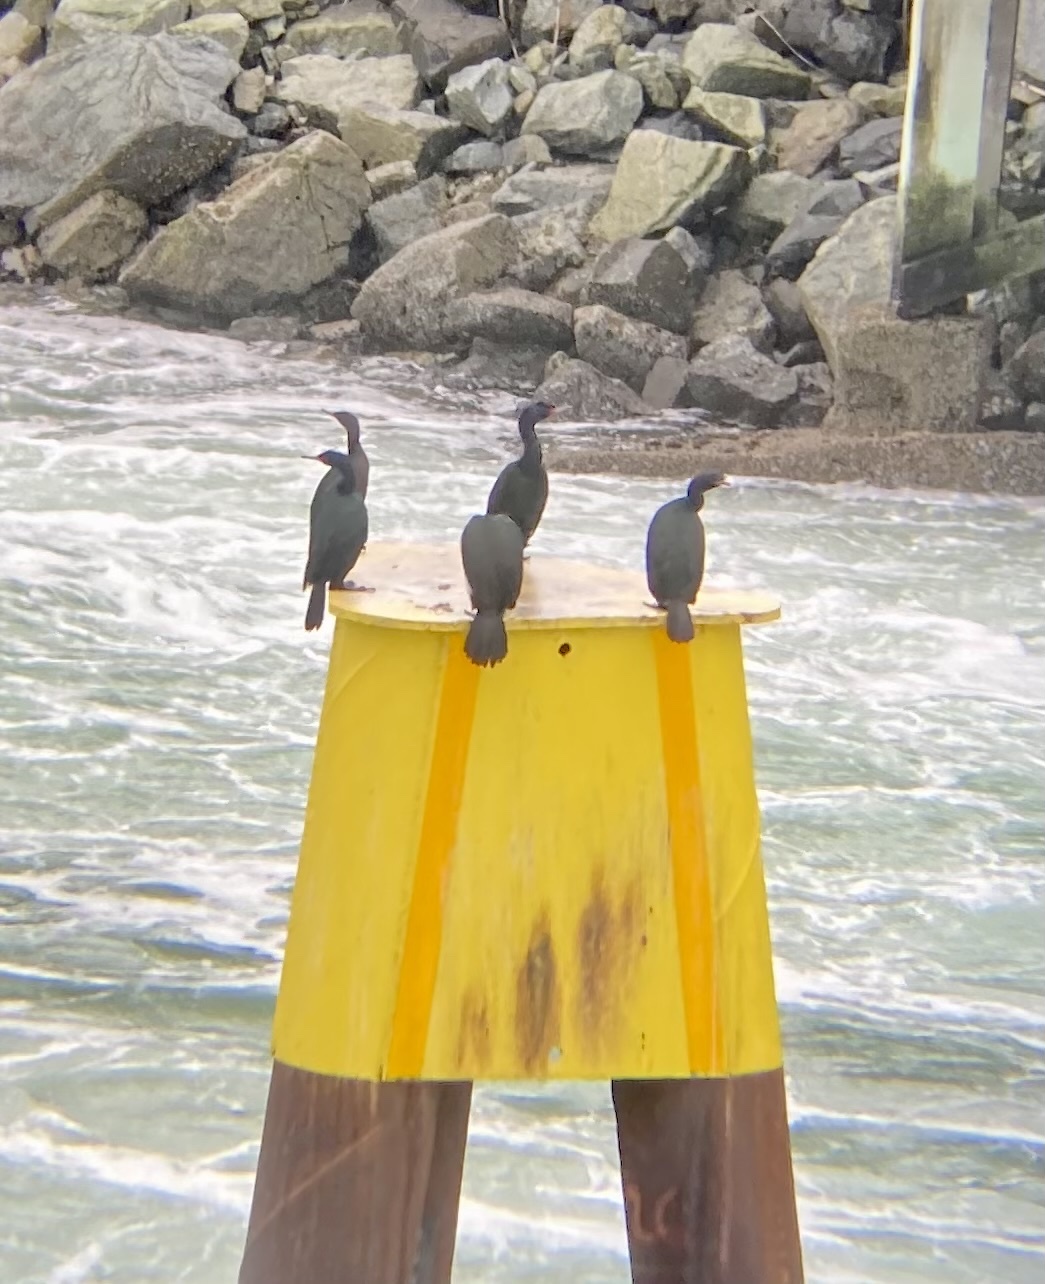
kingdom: Animalia
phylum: Chordata
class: Aves
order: Suliformes
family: Phalacrocoracidae
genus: Phalacrocorax
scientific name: Phalacrocorax pelagicus
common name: Pelagic cormorant
